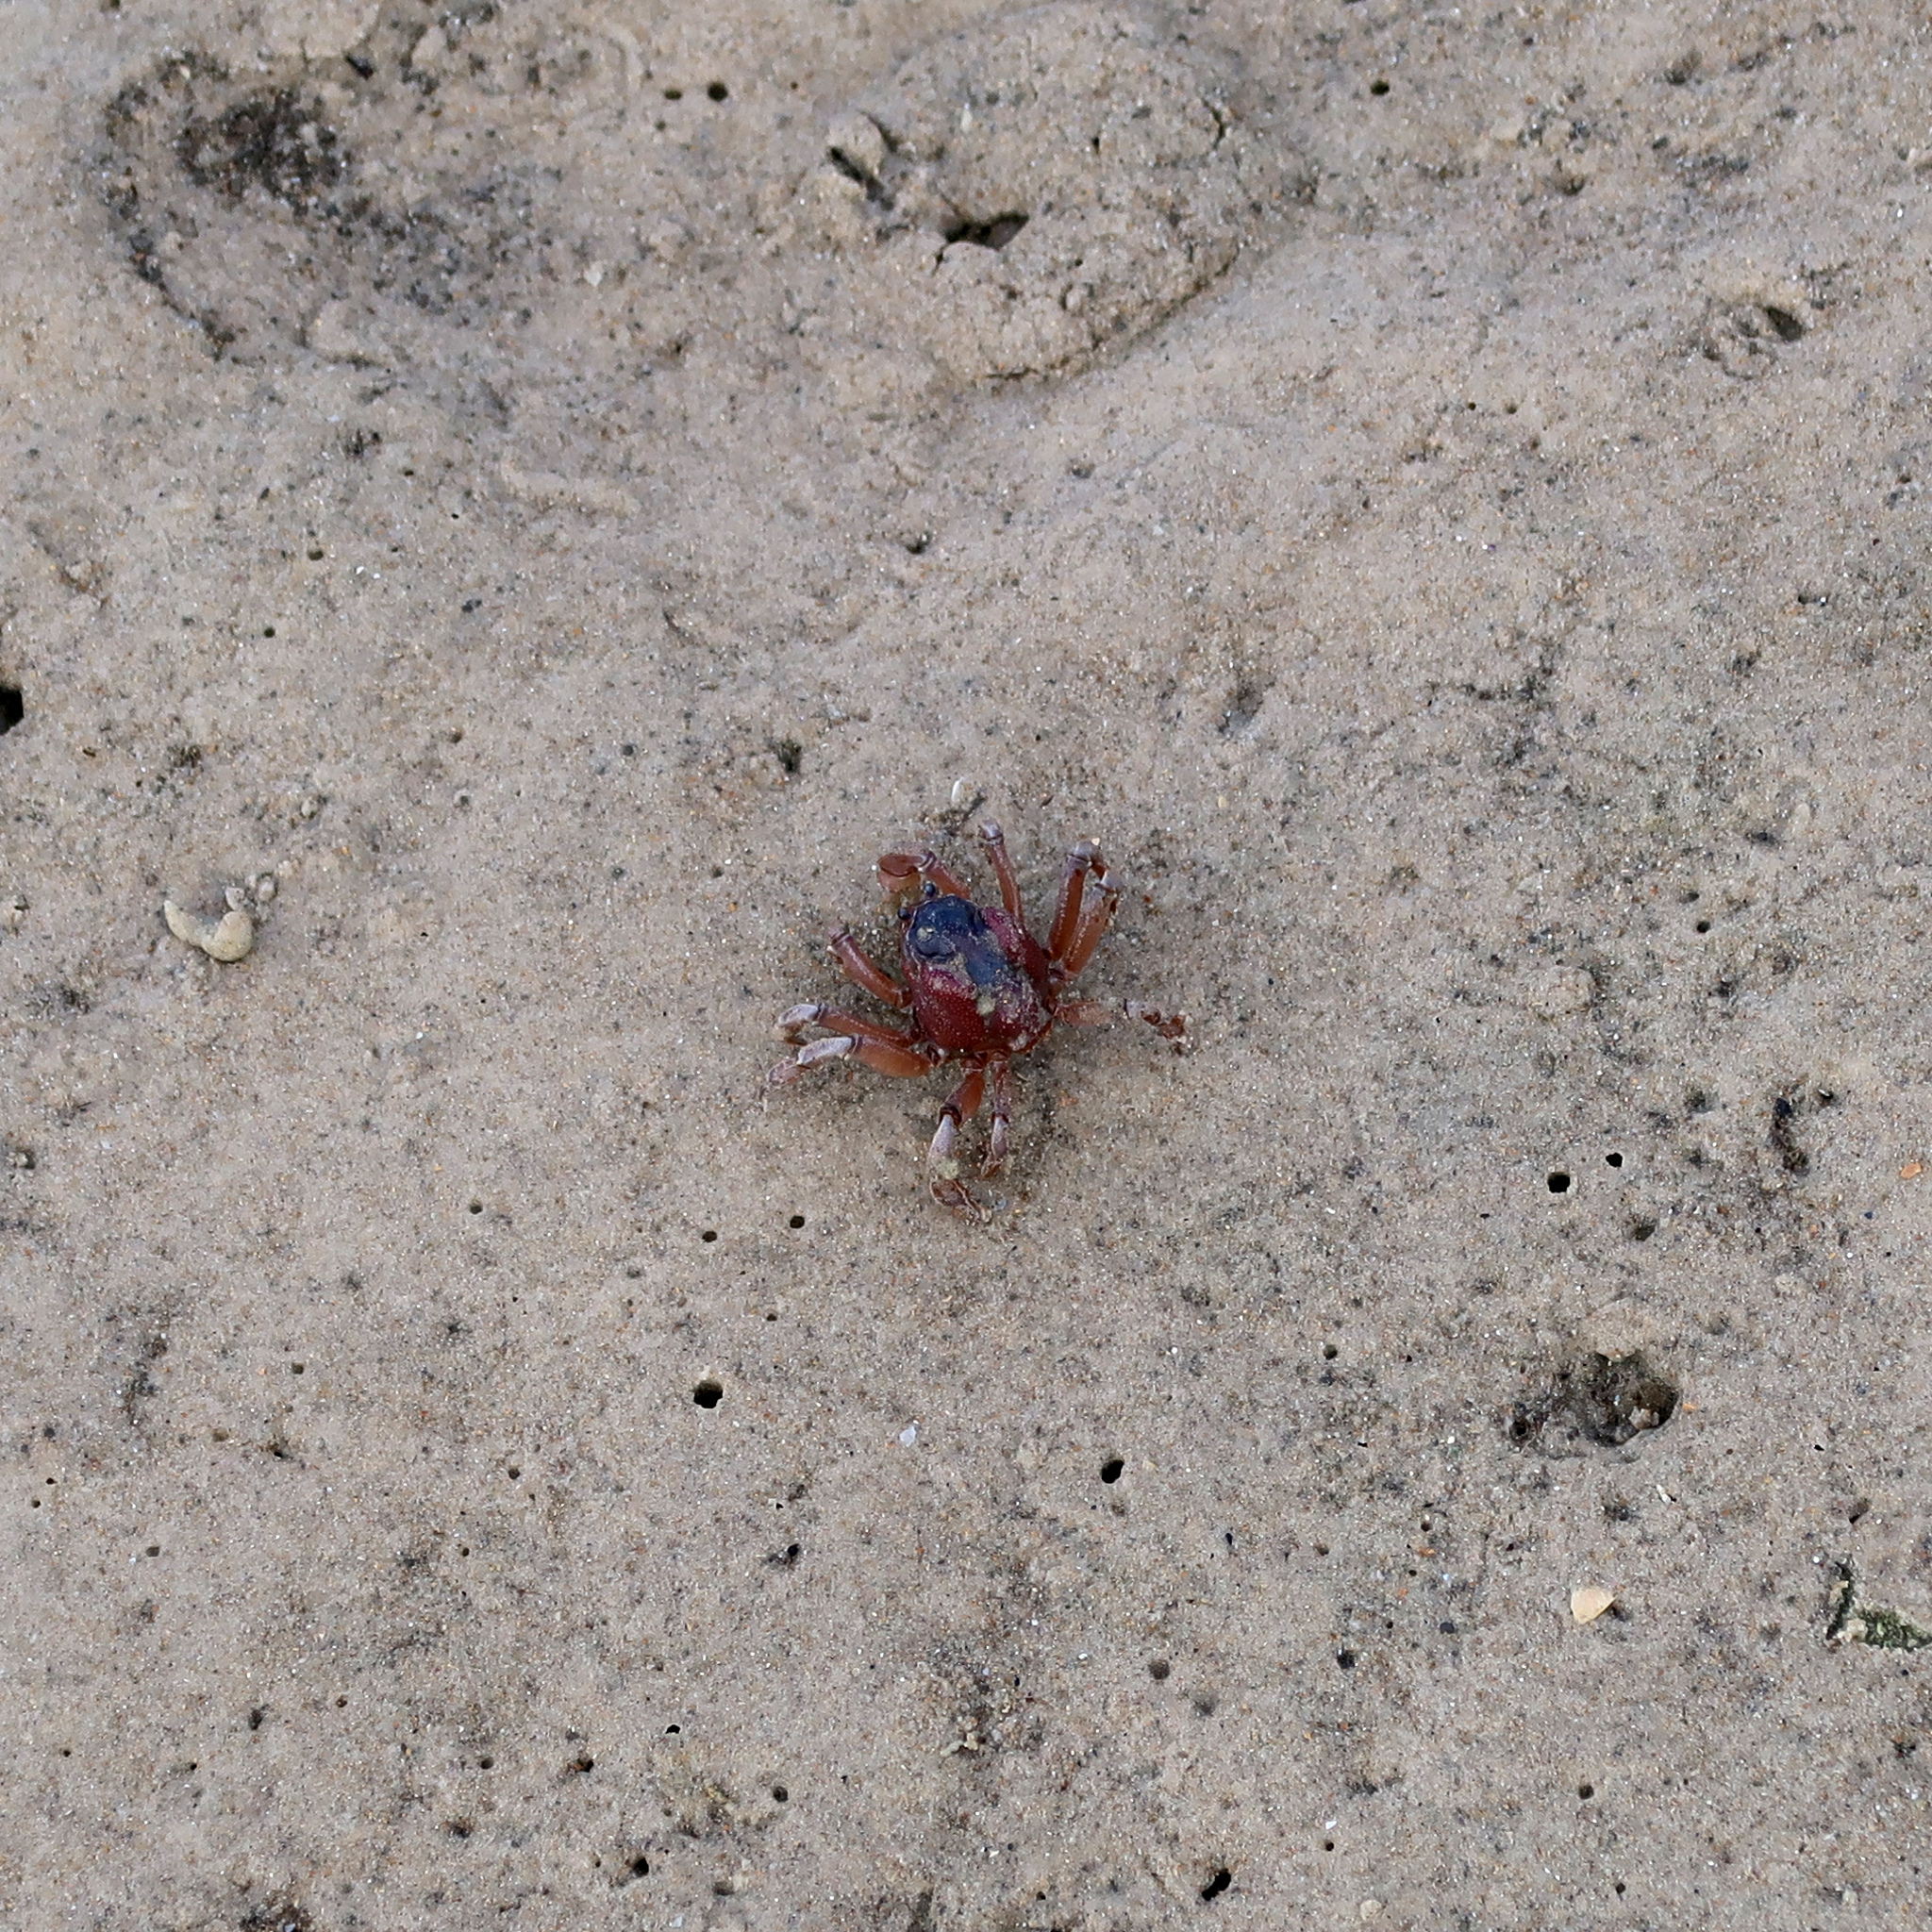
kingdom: Animalia
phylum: Arthropoda
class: Malacostraca
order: Decapoda
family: Mictyridae
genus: Mictyris
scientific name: Mictyris platycheles
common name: Dark blue soldier crab
